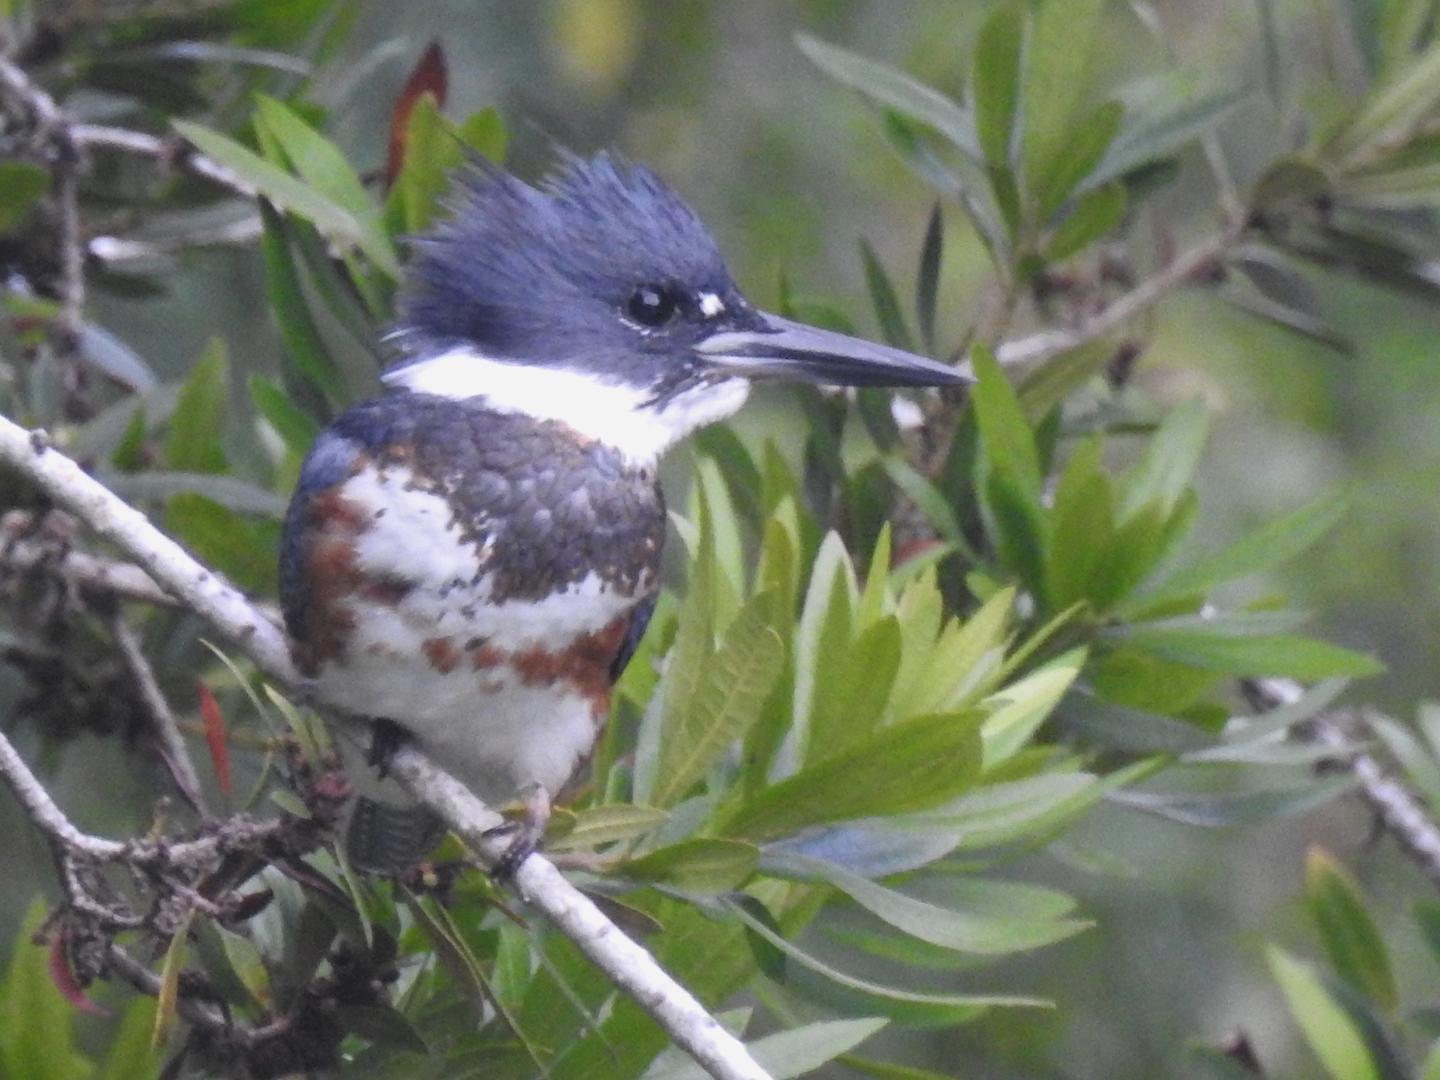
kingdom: Animalia
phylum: Chordata
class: Aves
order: Coraciiformes
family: Alcedinidae
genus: Megaceryle
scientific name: Megaceryle alcyon
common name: Belted kingfisher
